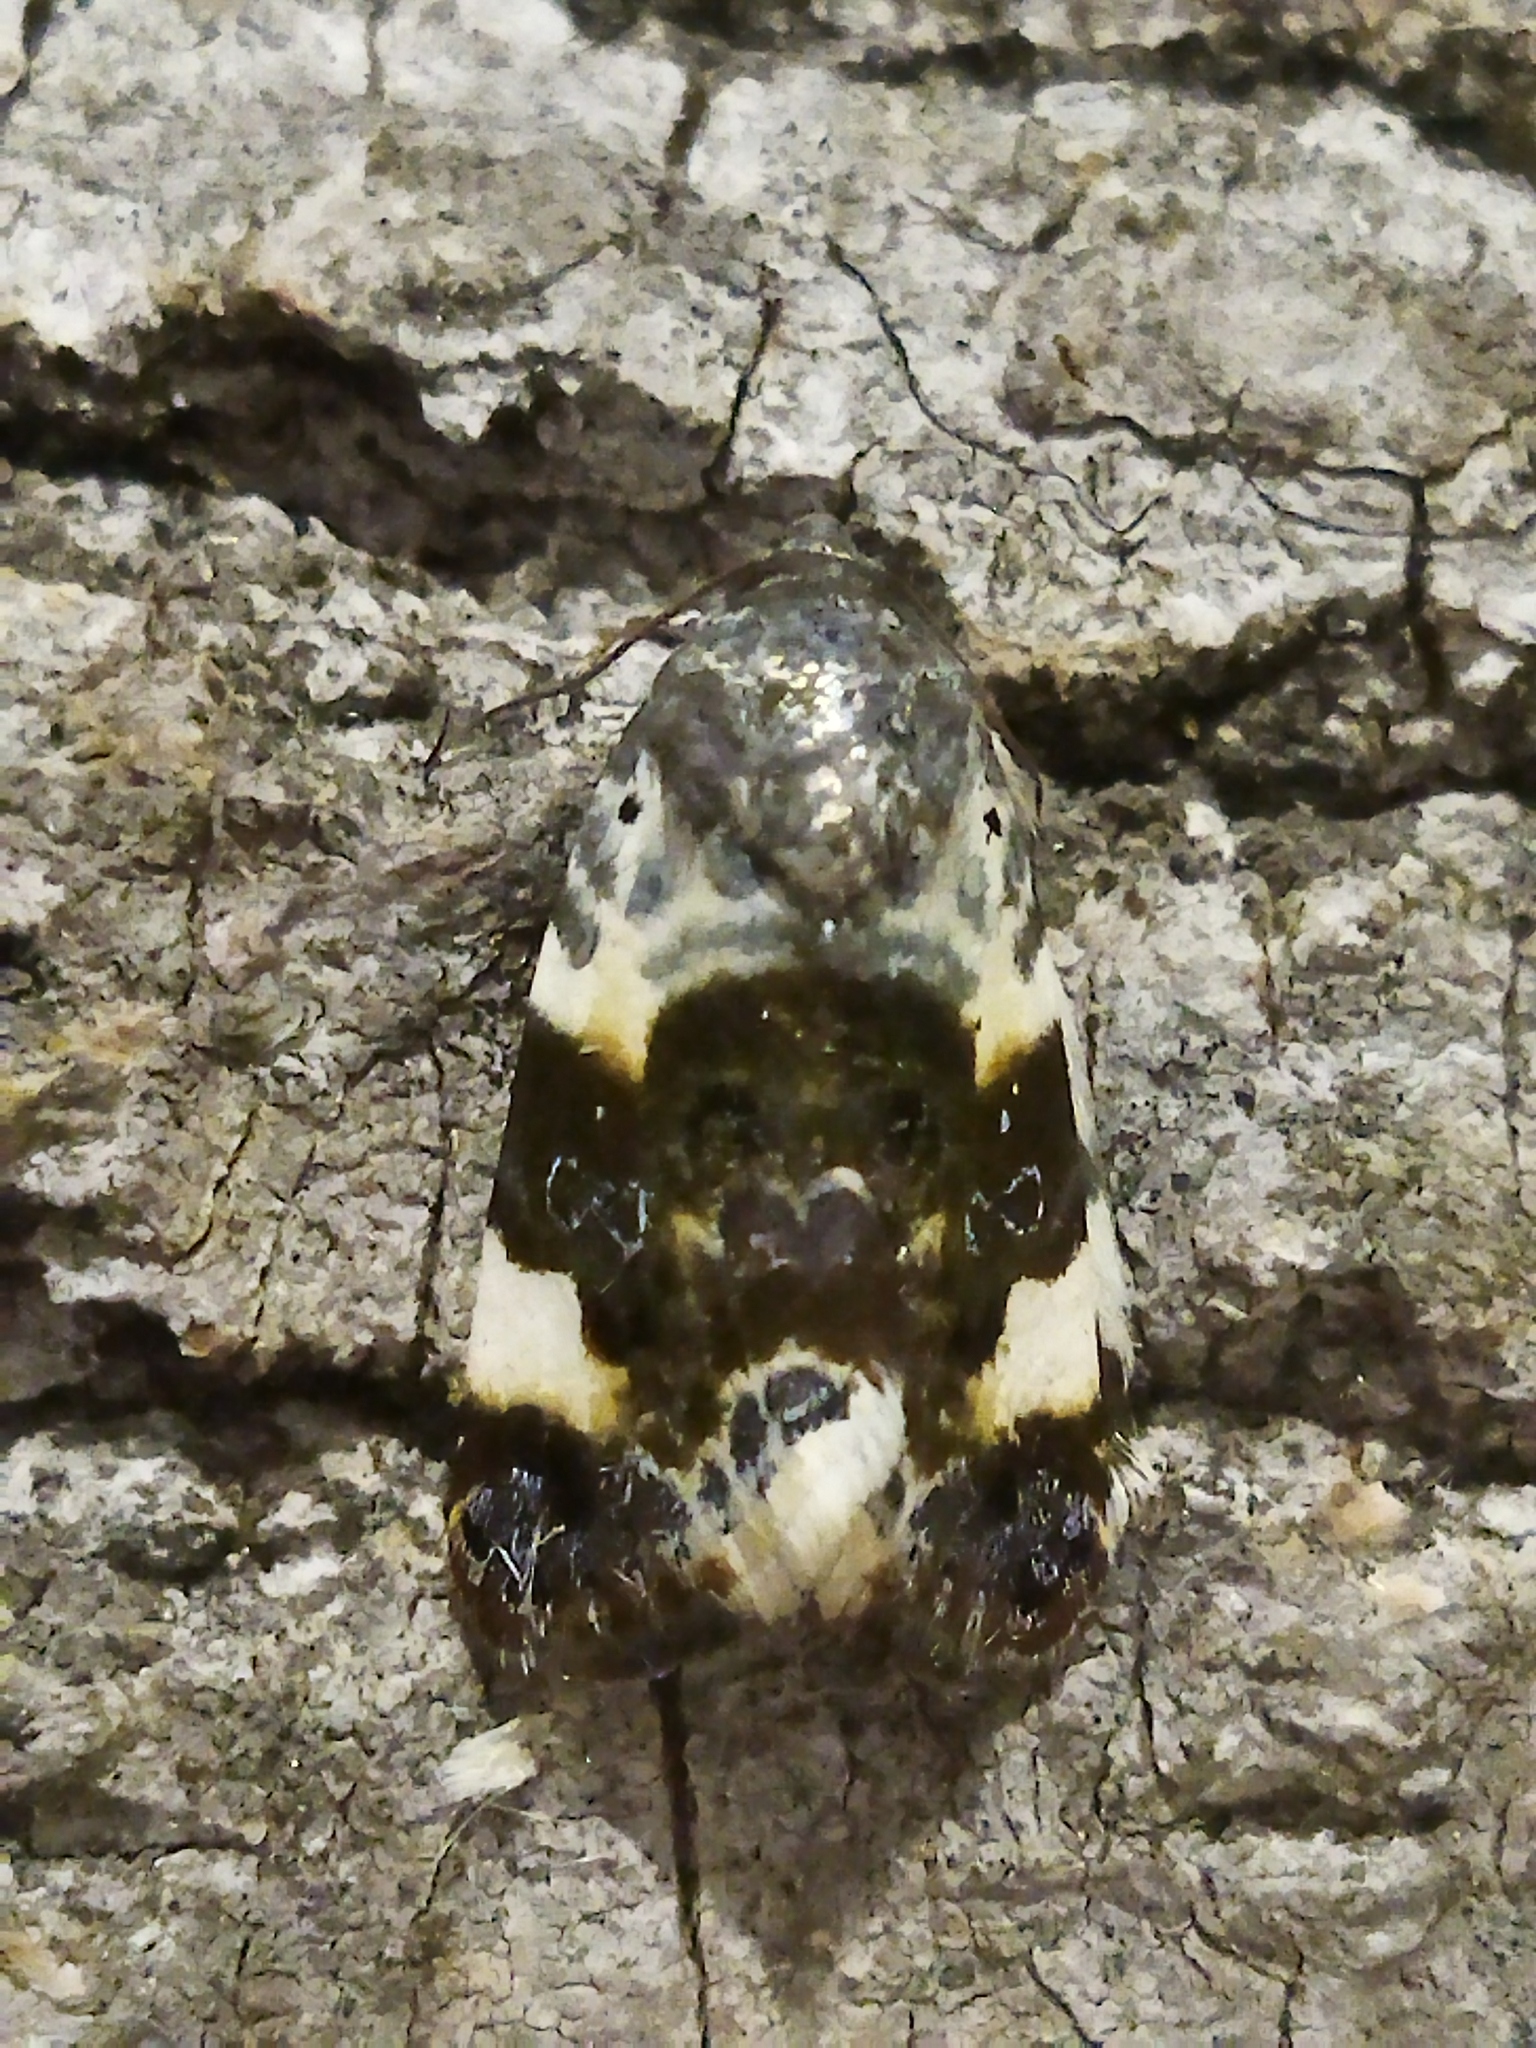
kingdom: Animalia
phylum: Arthropoda
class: Insecta
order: Lepidoptera
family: Noctuidae
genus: Acontia
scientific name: Acontia lucida
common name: Pale shoulder
